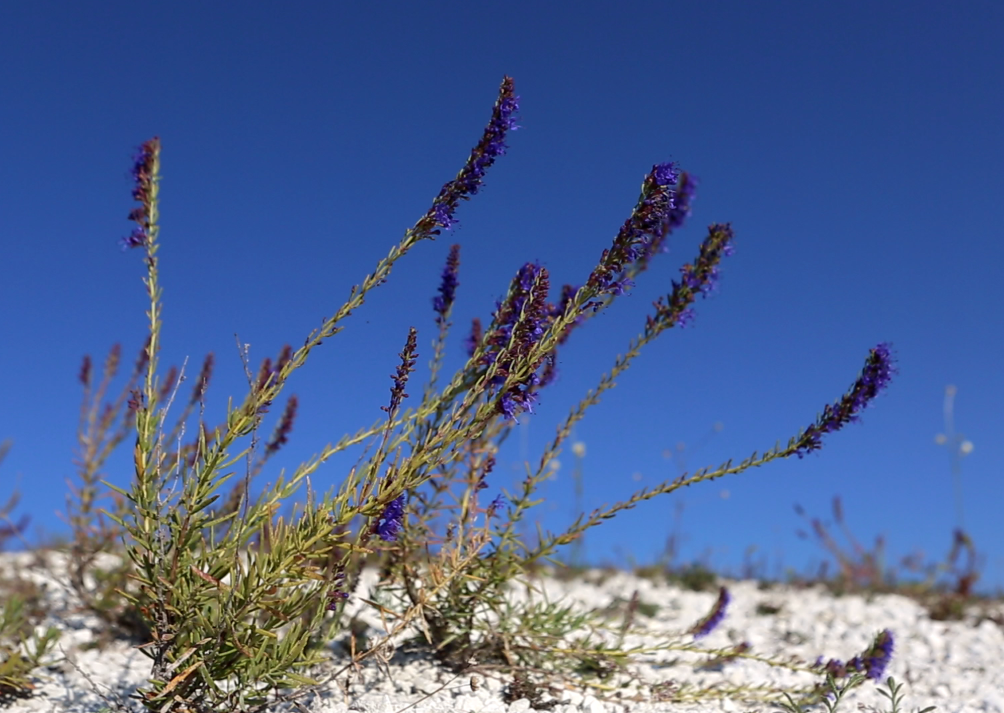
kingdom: Plantae
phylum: Tracheophyta
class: Magnoliopsida
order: Lamiales
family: Lamiaceae
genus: Hyssopus
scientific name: Hyssopus officinalis
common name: Hyssop
